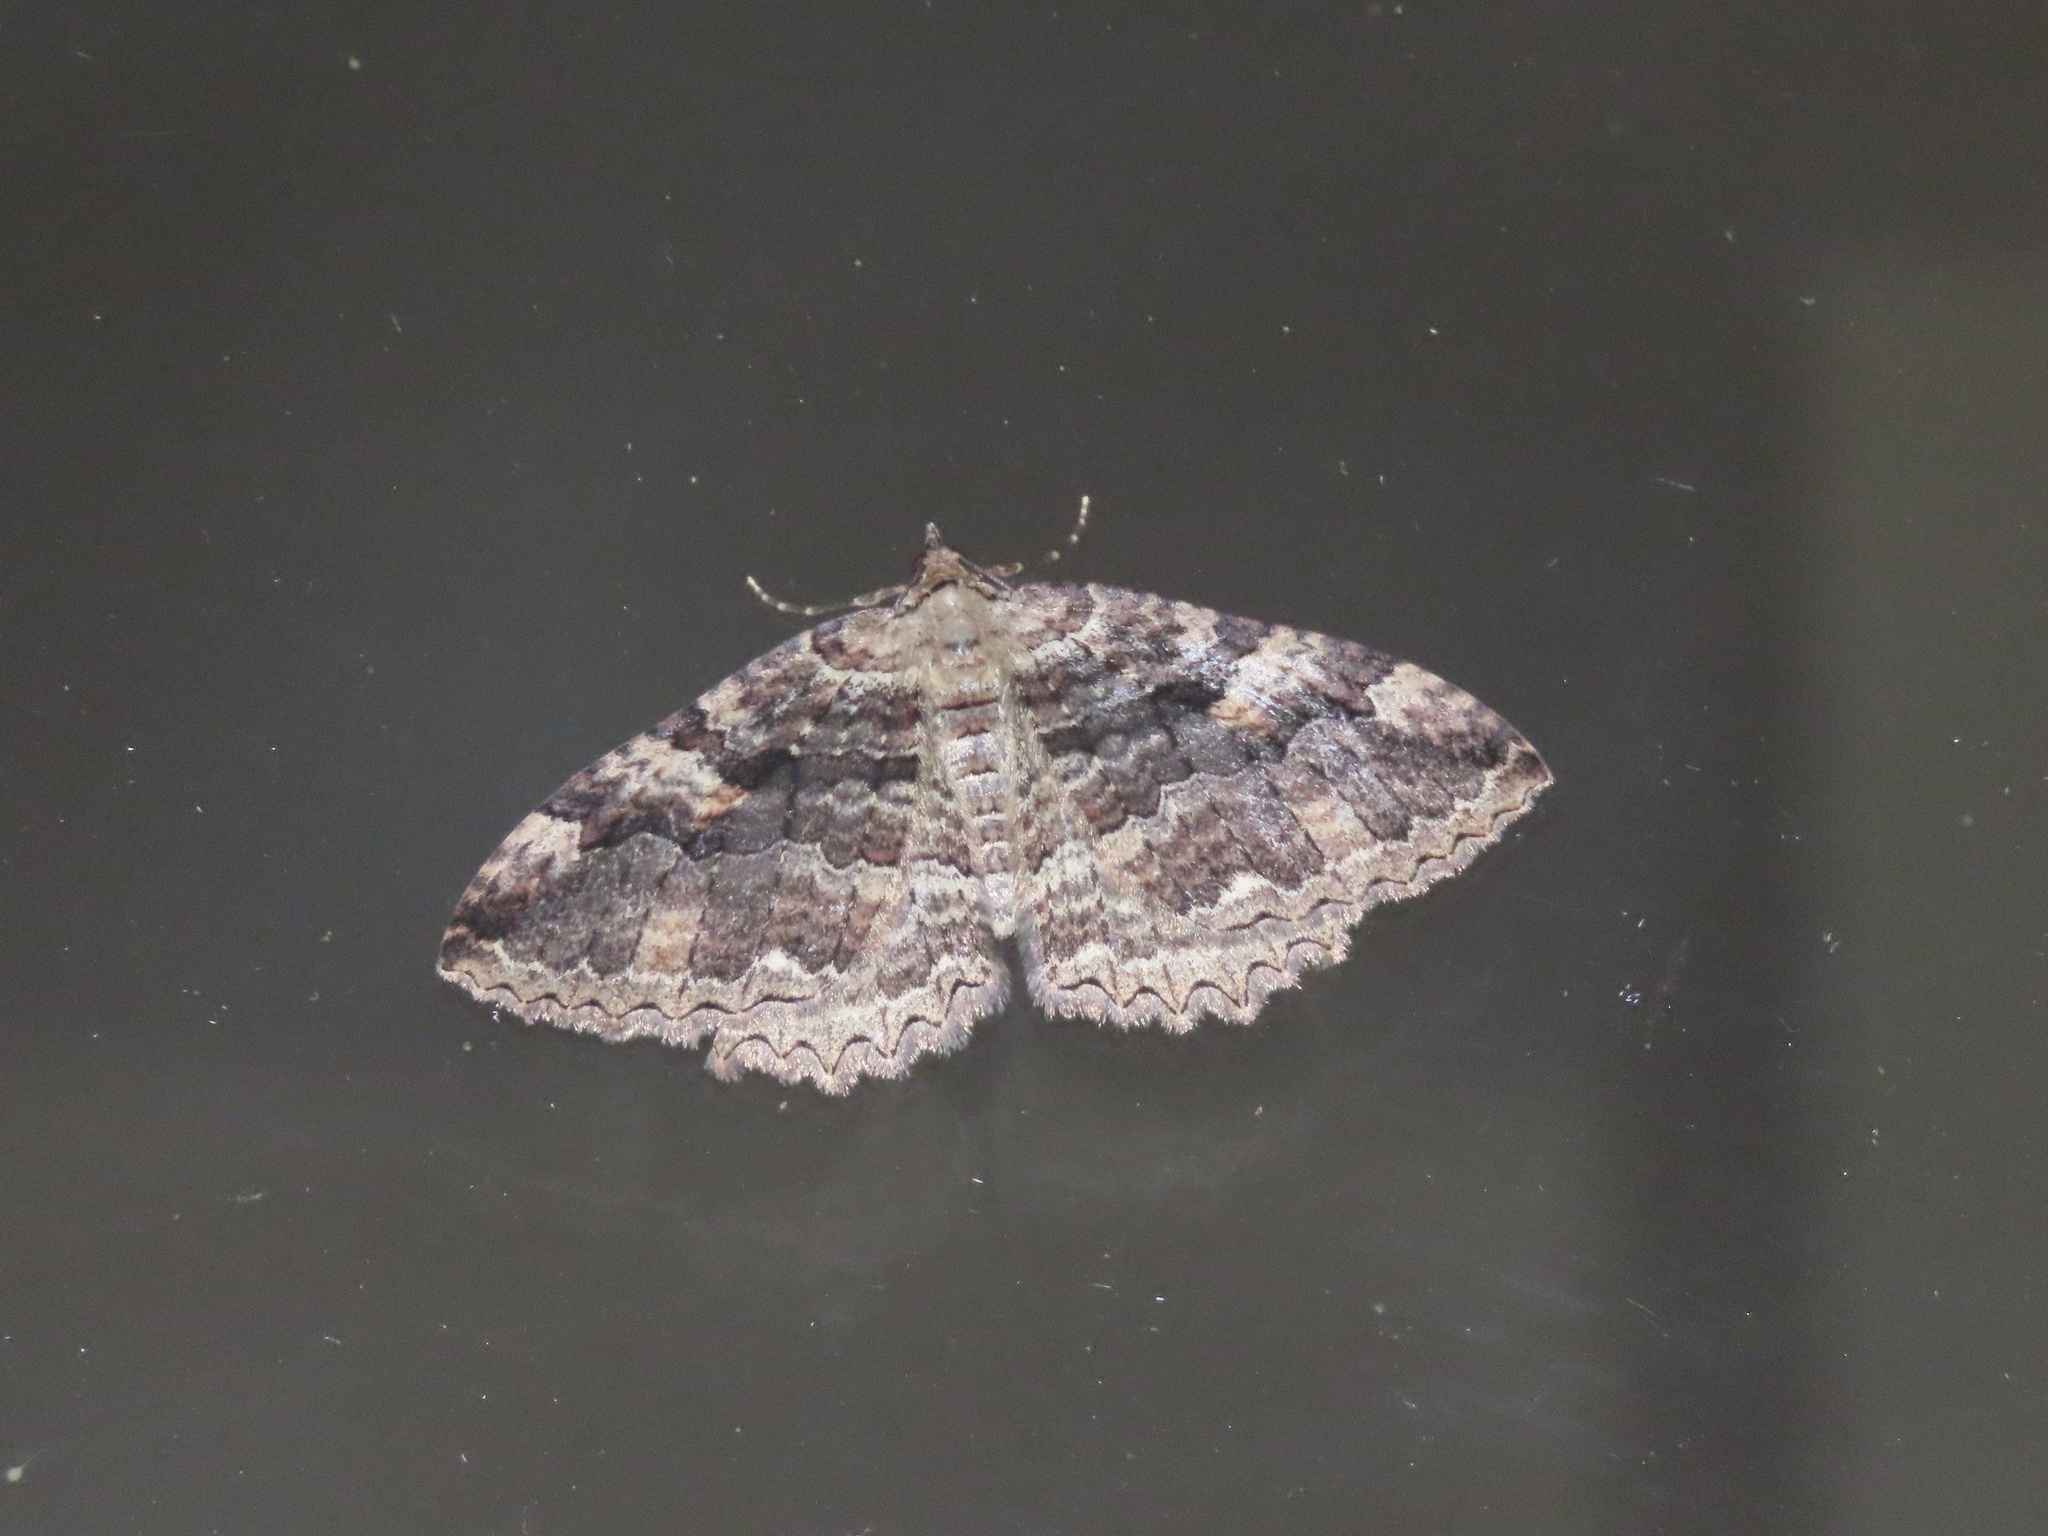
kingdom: Animalia
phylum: Arthropoda
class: Insecta
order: Lepidoptera
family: Geometridae
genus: Triphosa
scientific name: Triphosa haesitata
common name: Tissue moth
